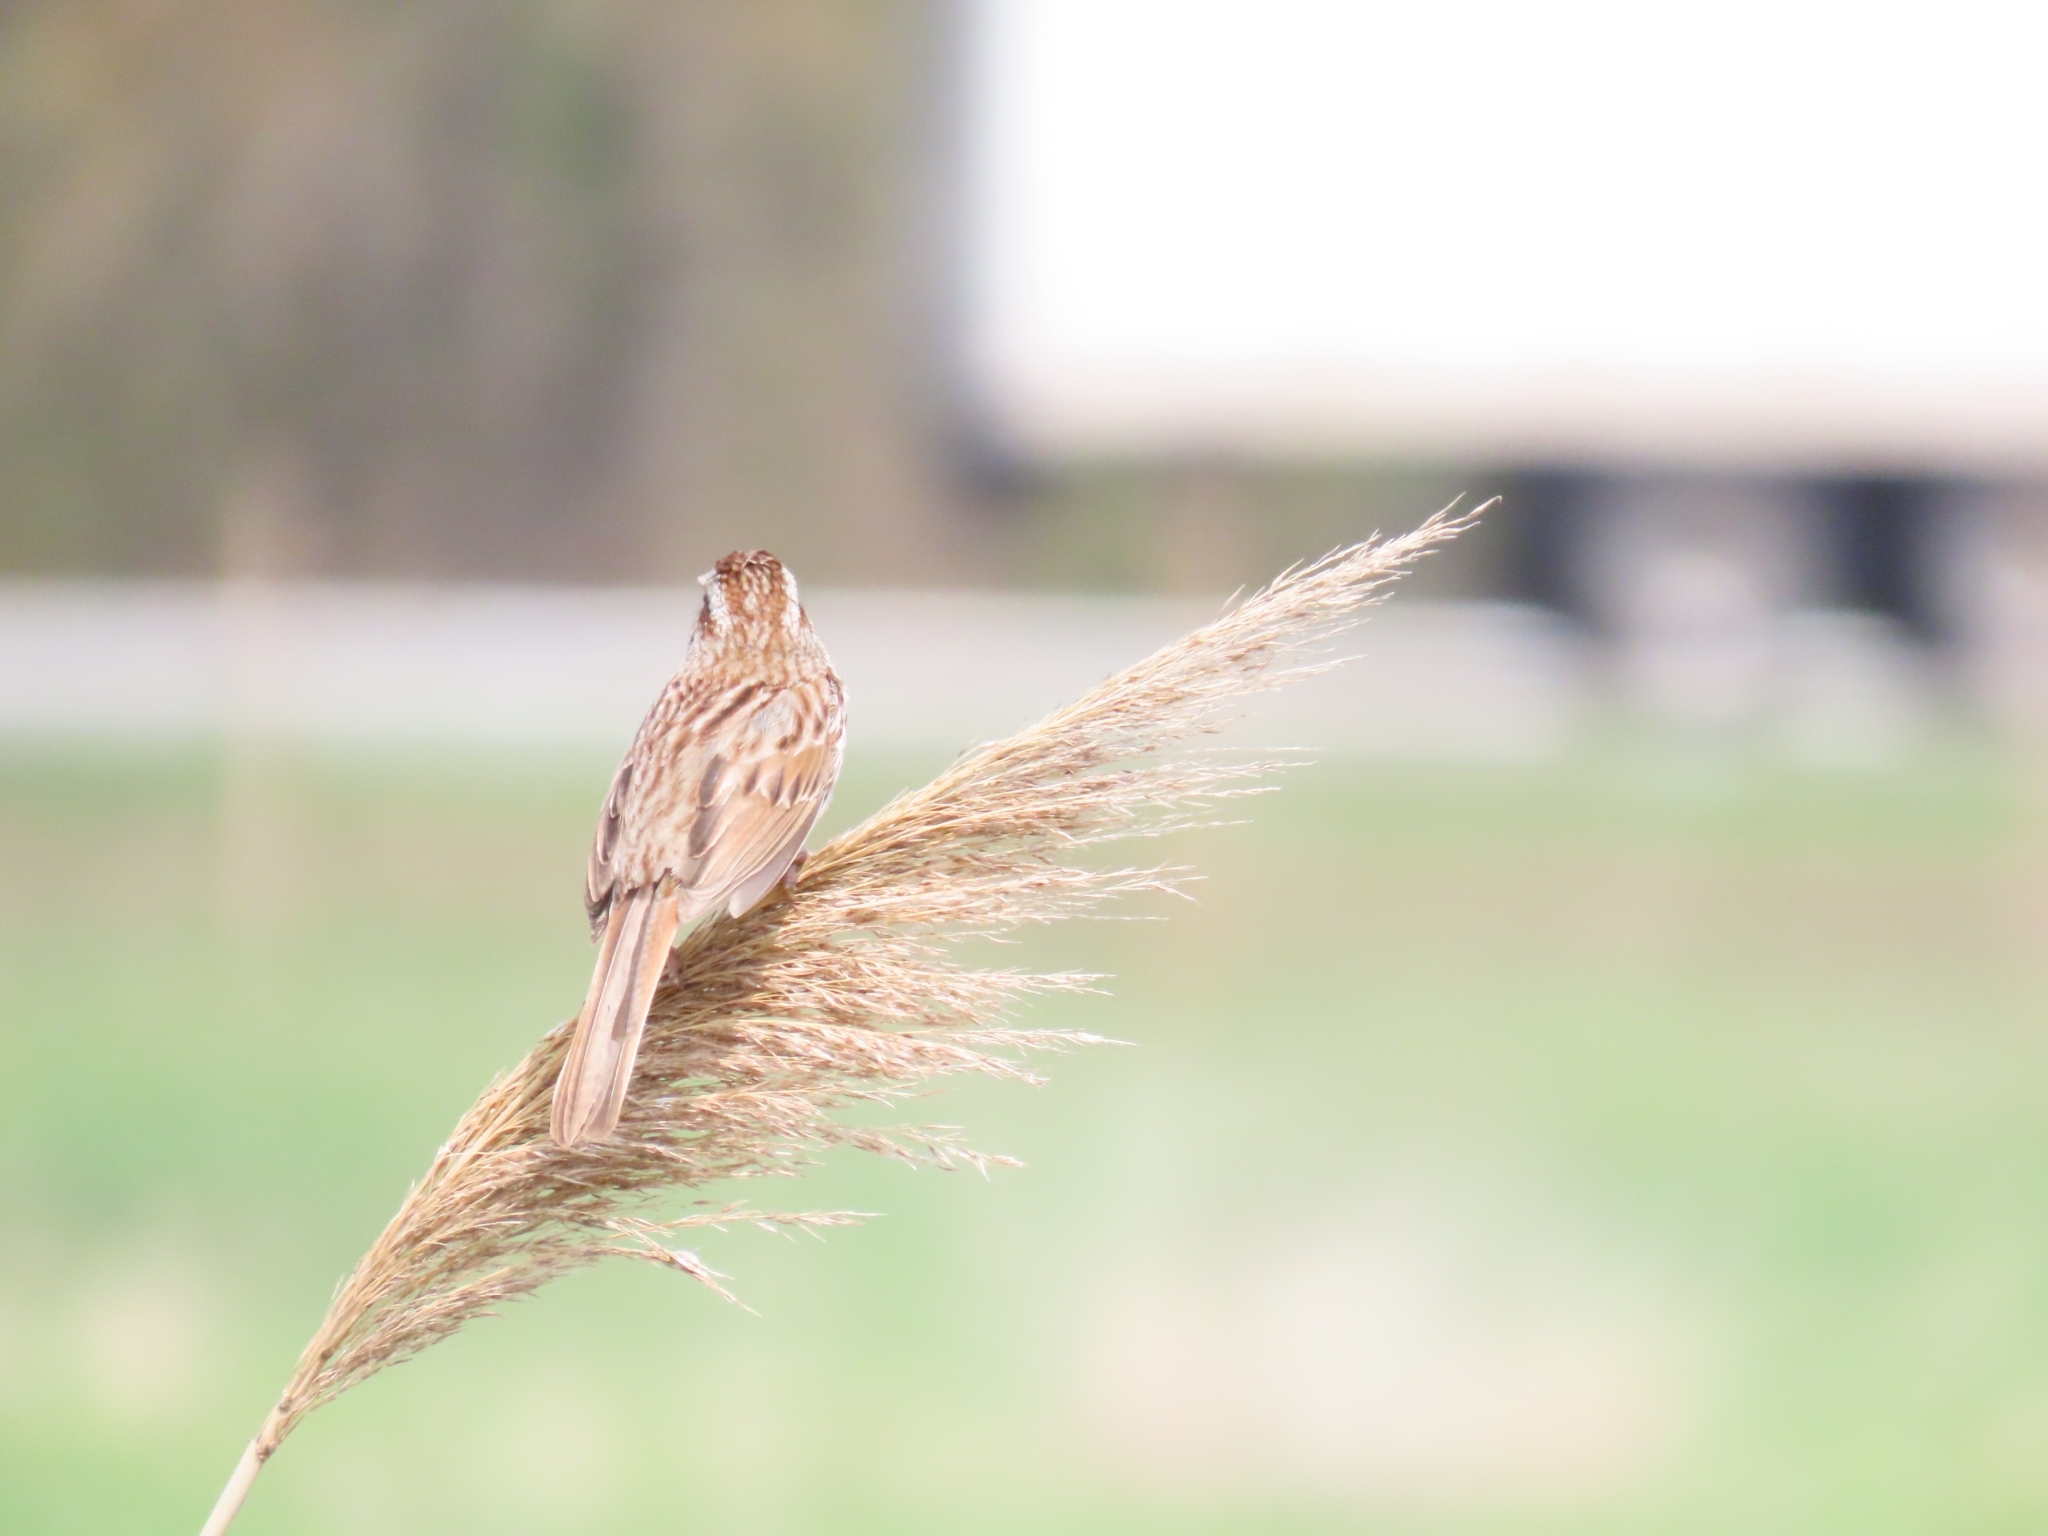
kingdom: Animalia
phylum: Chordata
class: Aves
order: Passeriformes
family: Passerellidae
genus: Melospiza
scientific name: Melospiza melodia
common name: Song sparrow
